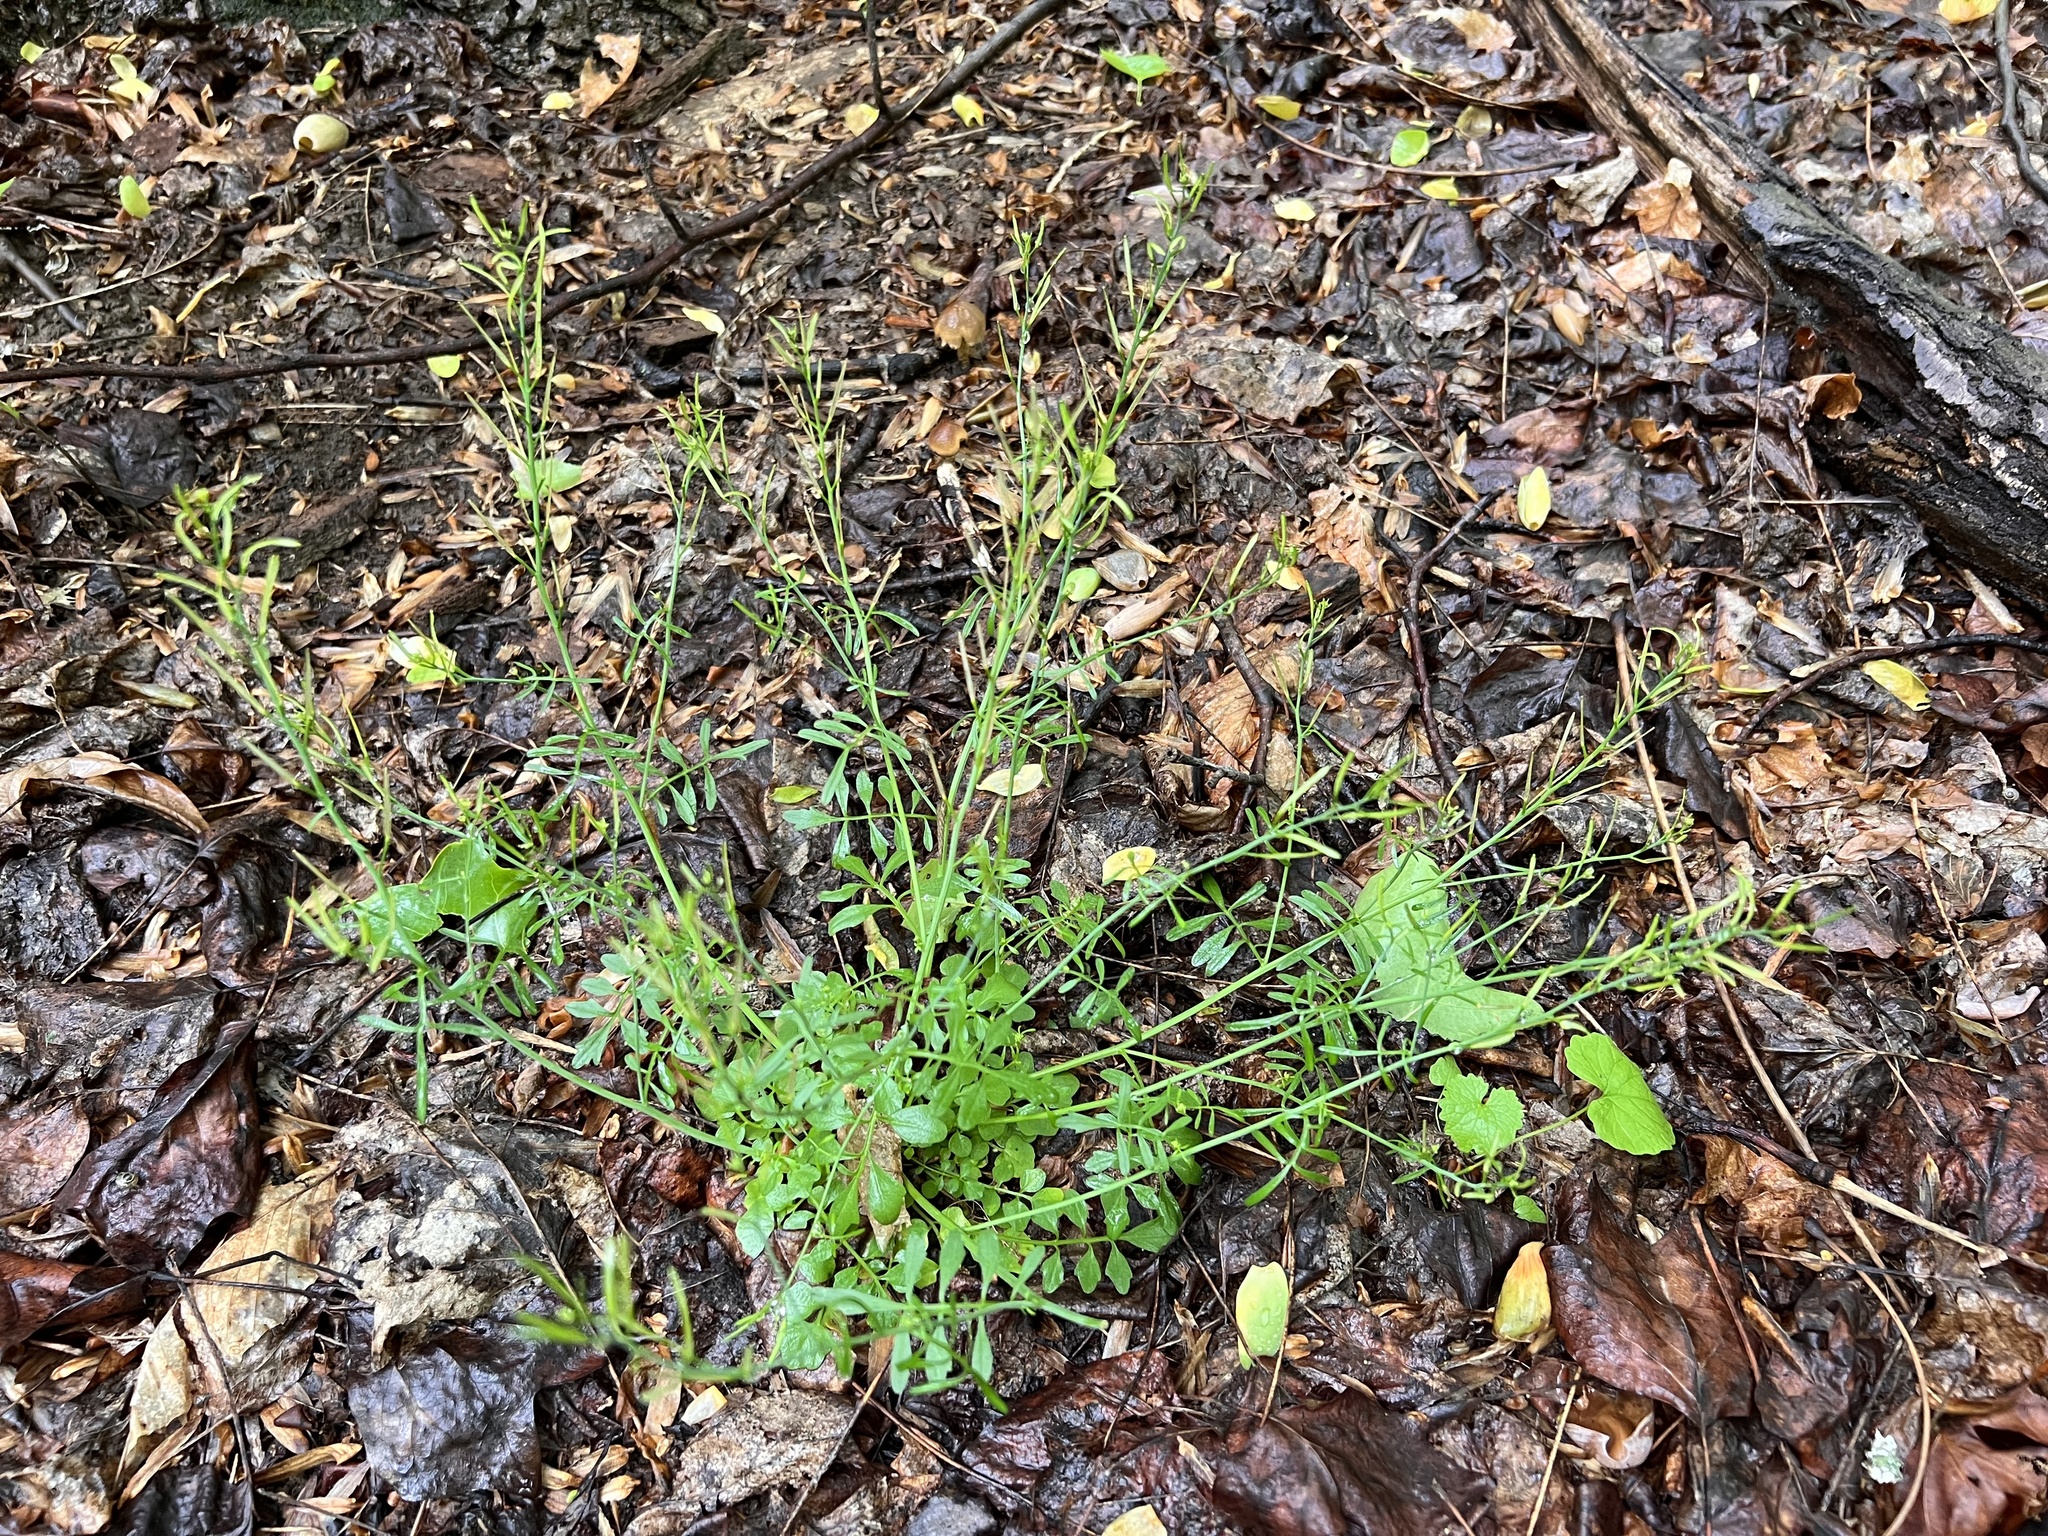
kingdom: Plantae
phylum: Tracheophyta
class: Magnoliopsida
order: Brassicales
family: Brassicaceae
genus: Cardamine
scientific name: Cardamine hirsuta
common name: Hairy bittercress
